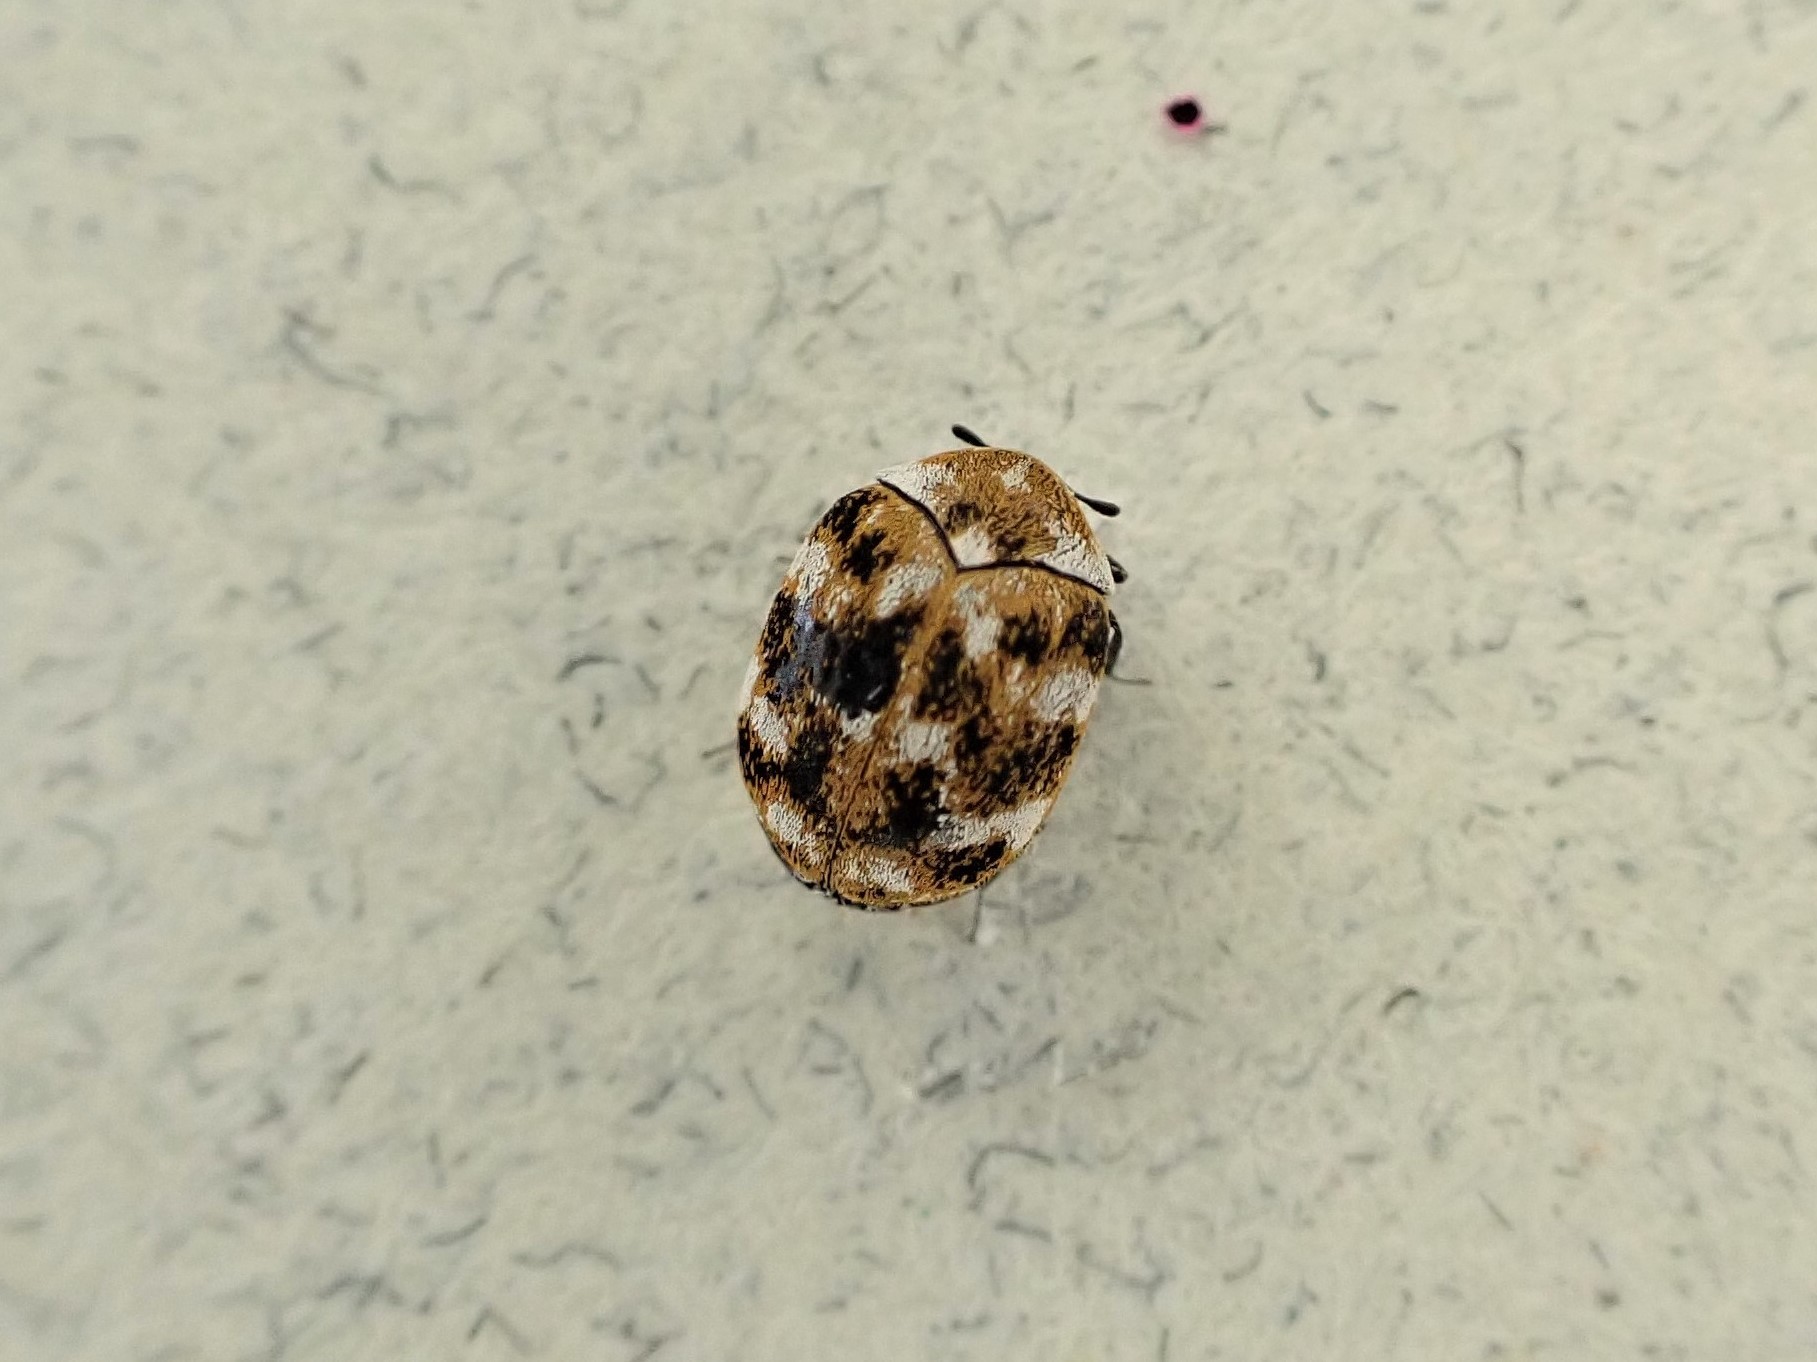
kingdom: Animalia
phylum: Arthropoda
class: Insecta
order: Coleoptera
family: Dermestidae
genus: Anthrenus
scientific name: Anthrenus verbasci
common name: Varied carpet beetle
